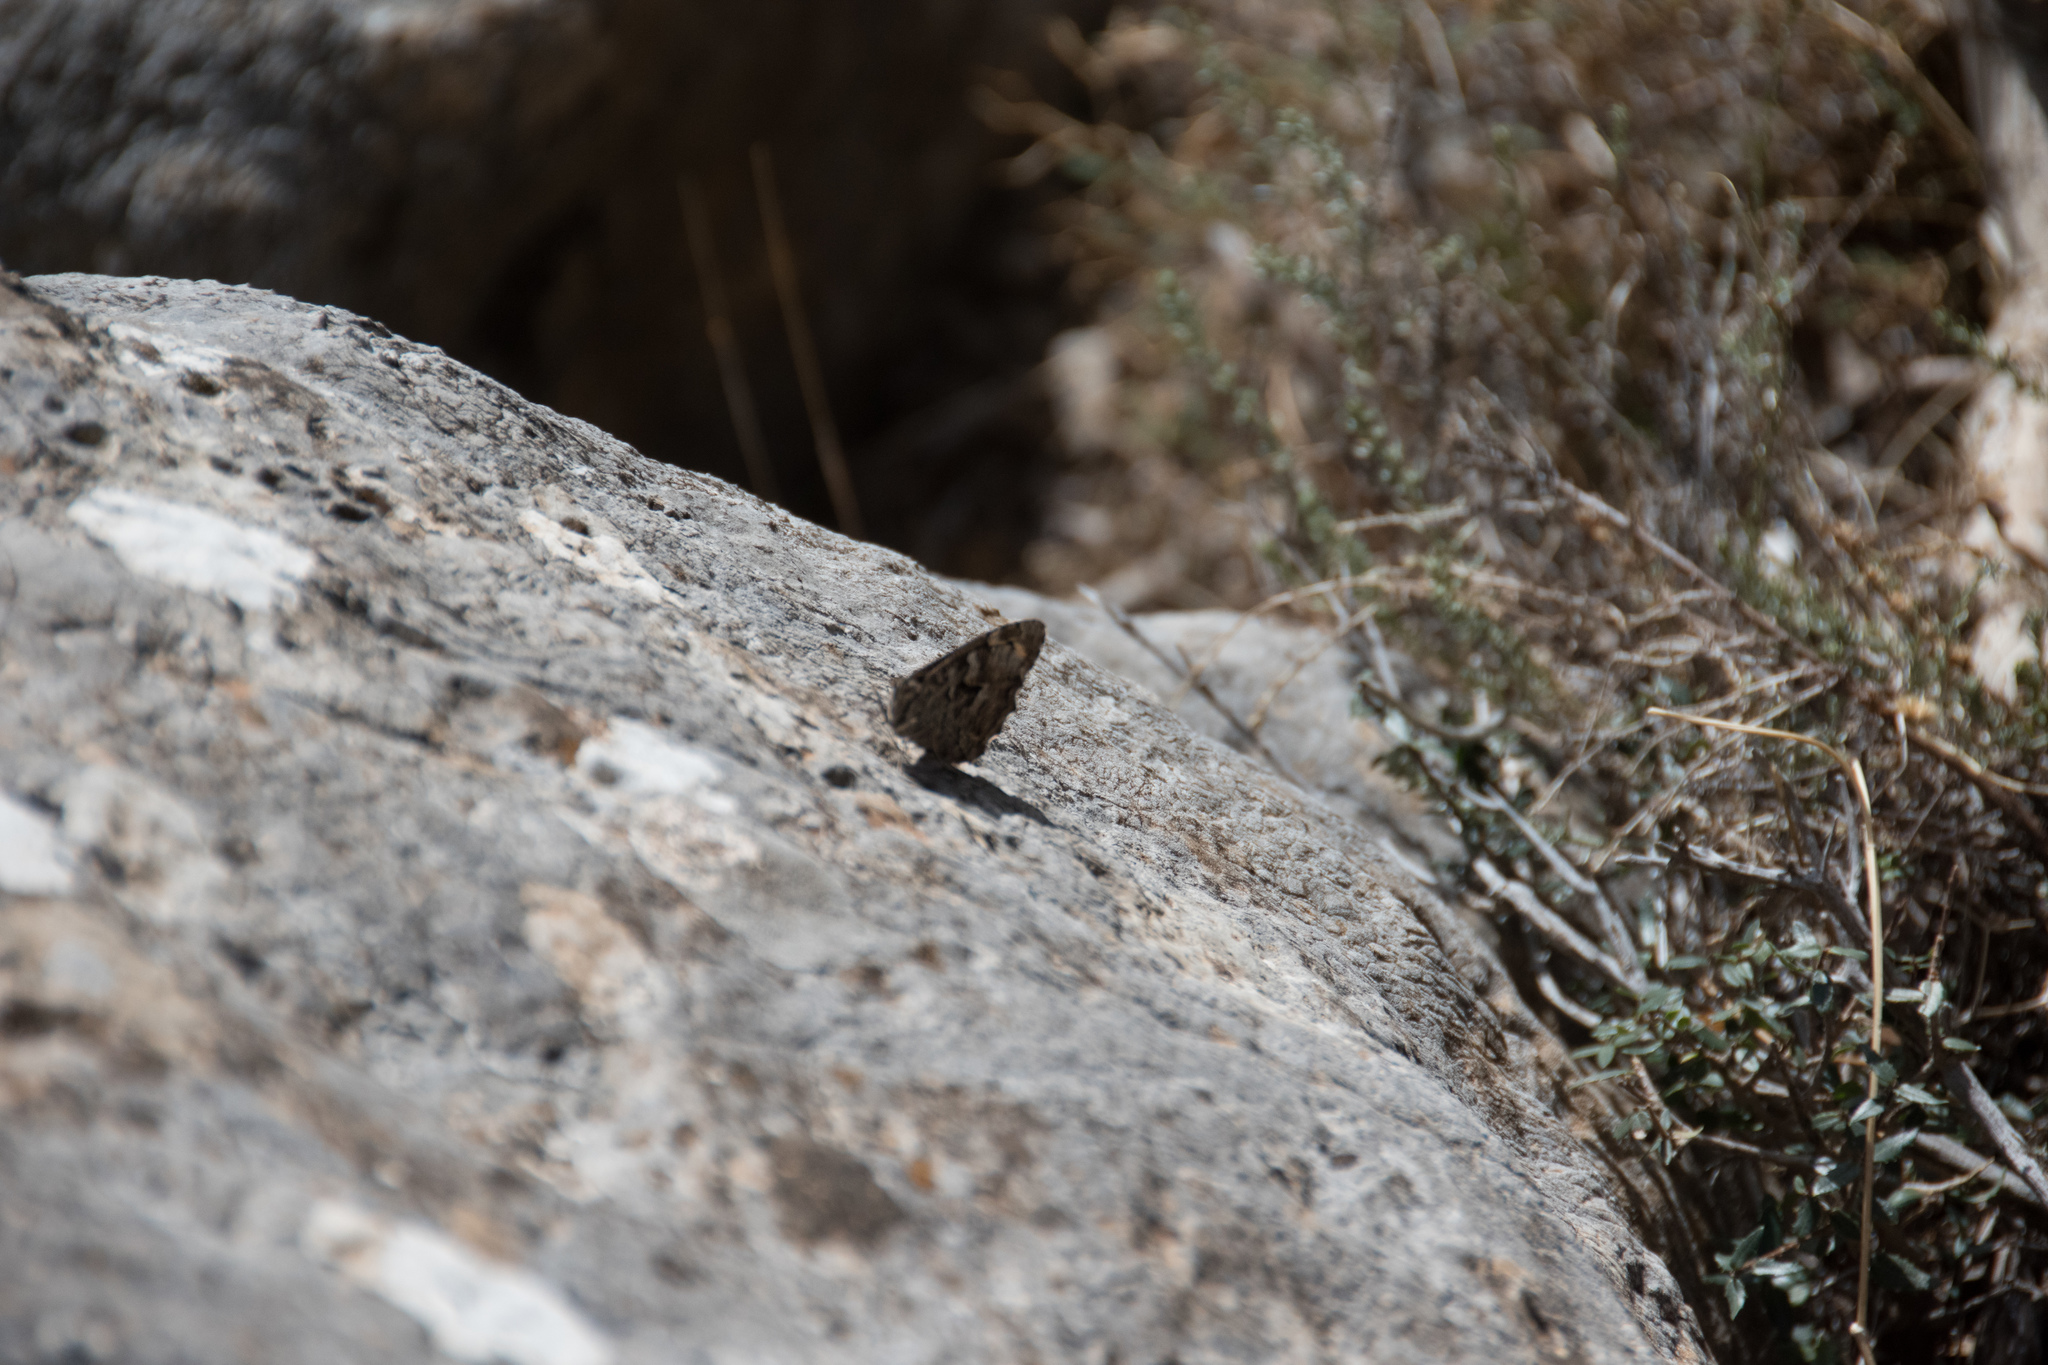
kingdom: Animalia
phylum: Arthropoda
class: Insecta
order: Lepidoptera
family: Nymphalidae
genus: Hipparchia
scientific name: Hipparchia cretica
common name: Cretan grayling
